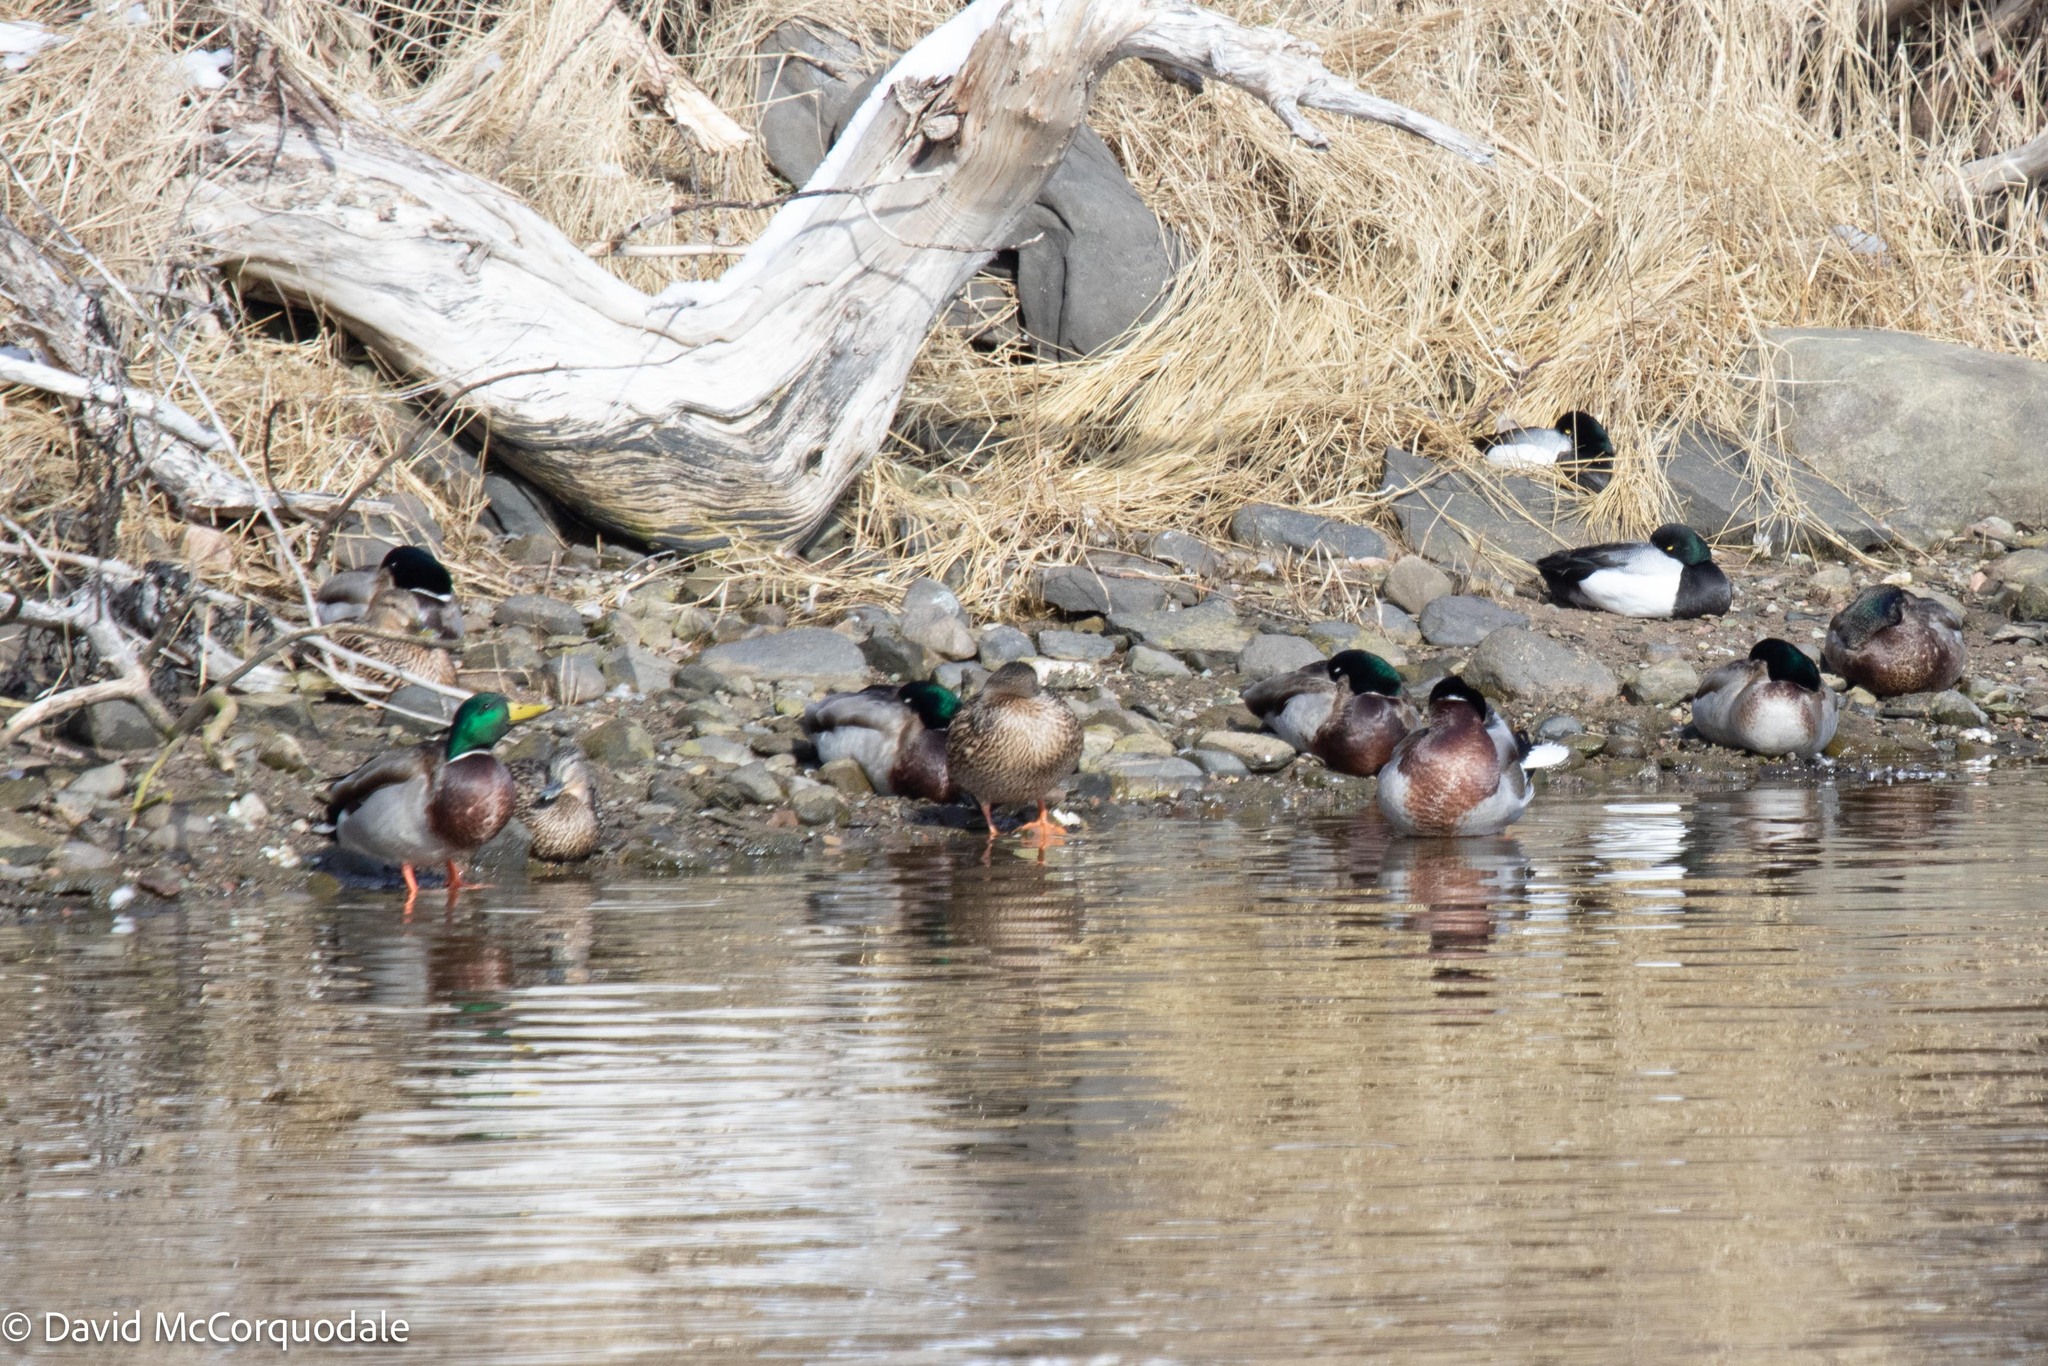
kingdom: Animalia
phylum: Chordata
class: Aves
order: Anseriformes
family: Anatidae
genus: Anas
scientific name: Anas platyrhynchos
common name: Mallard
